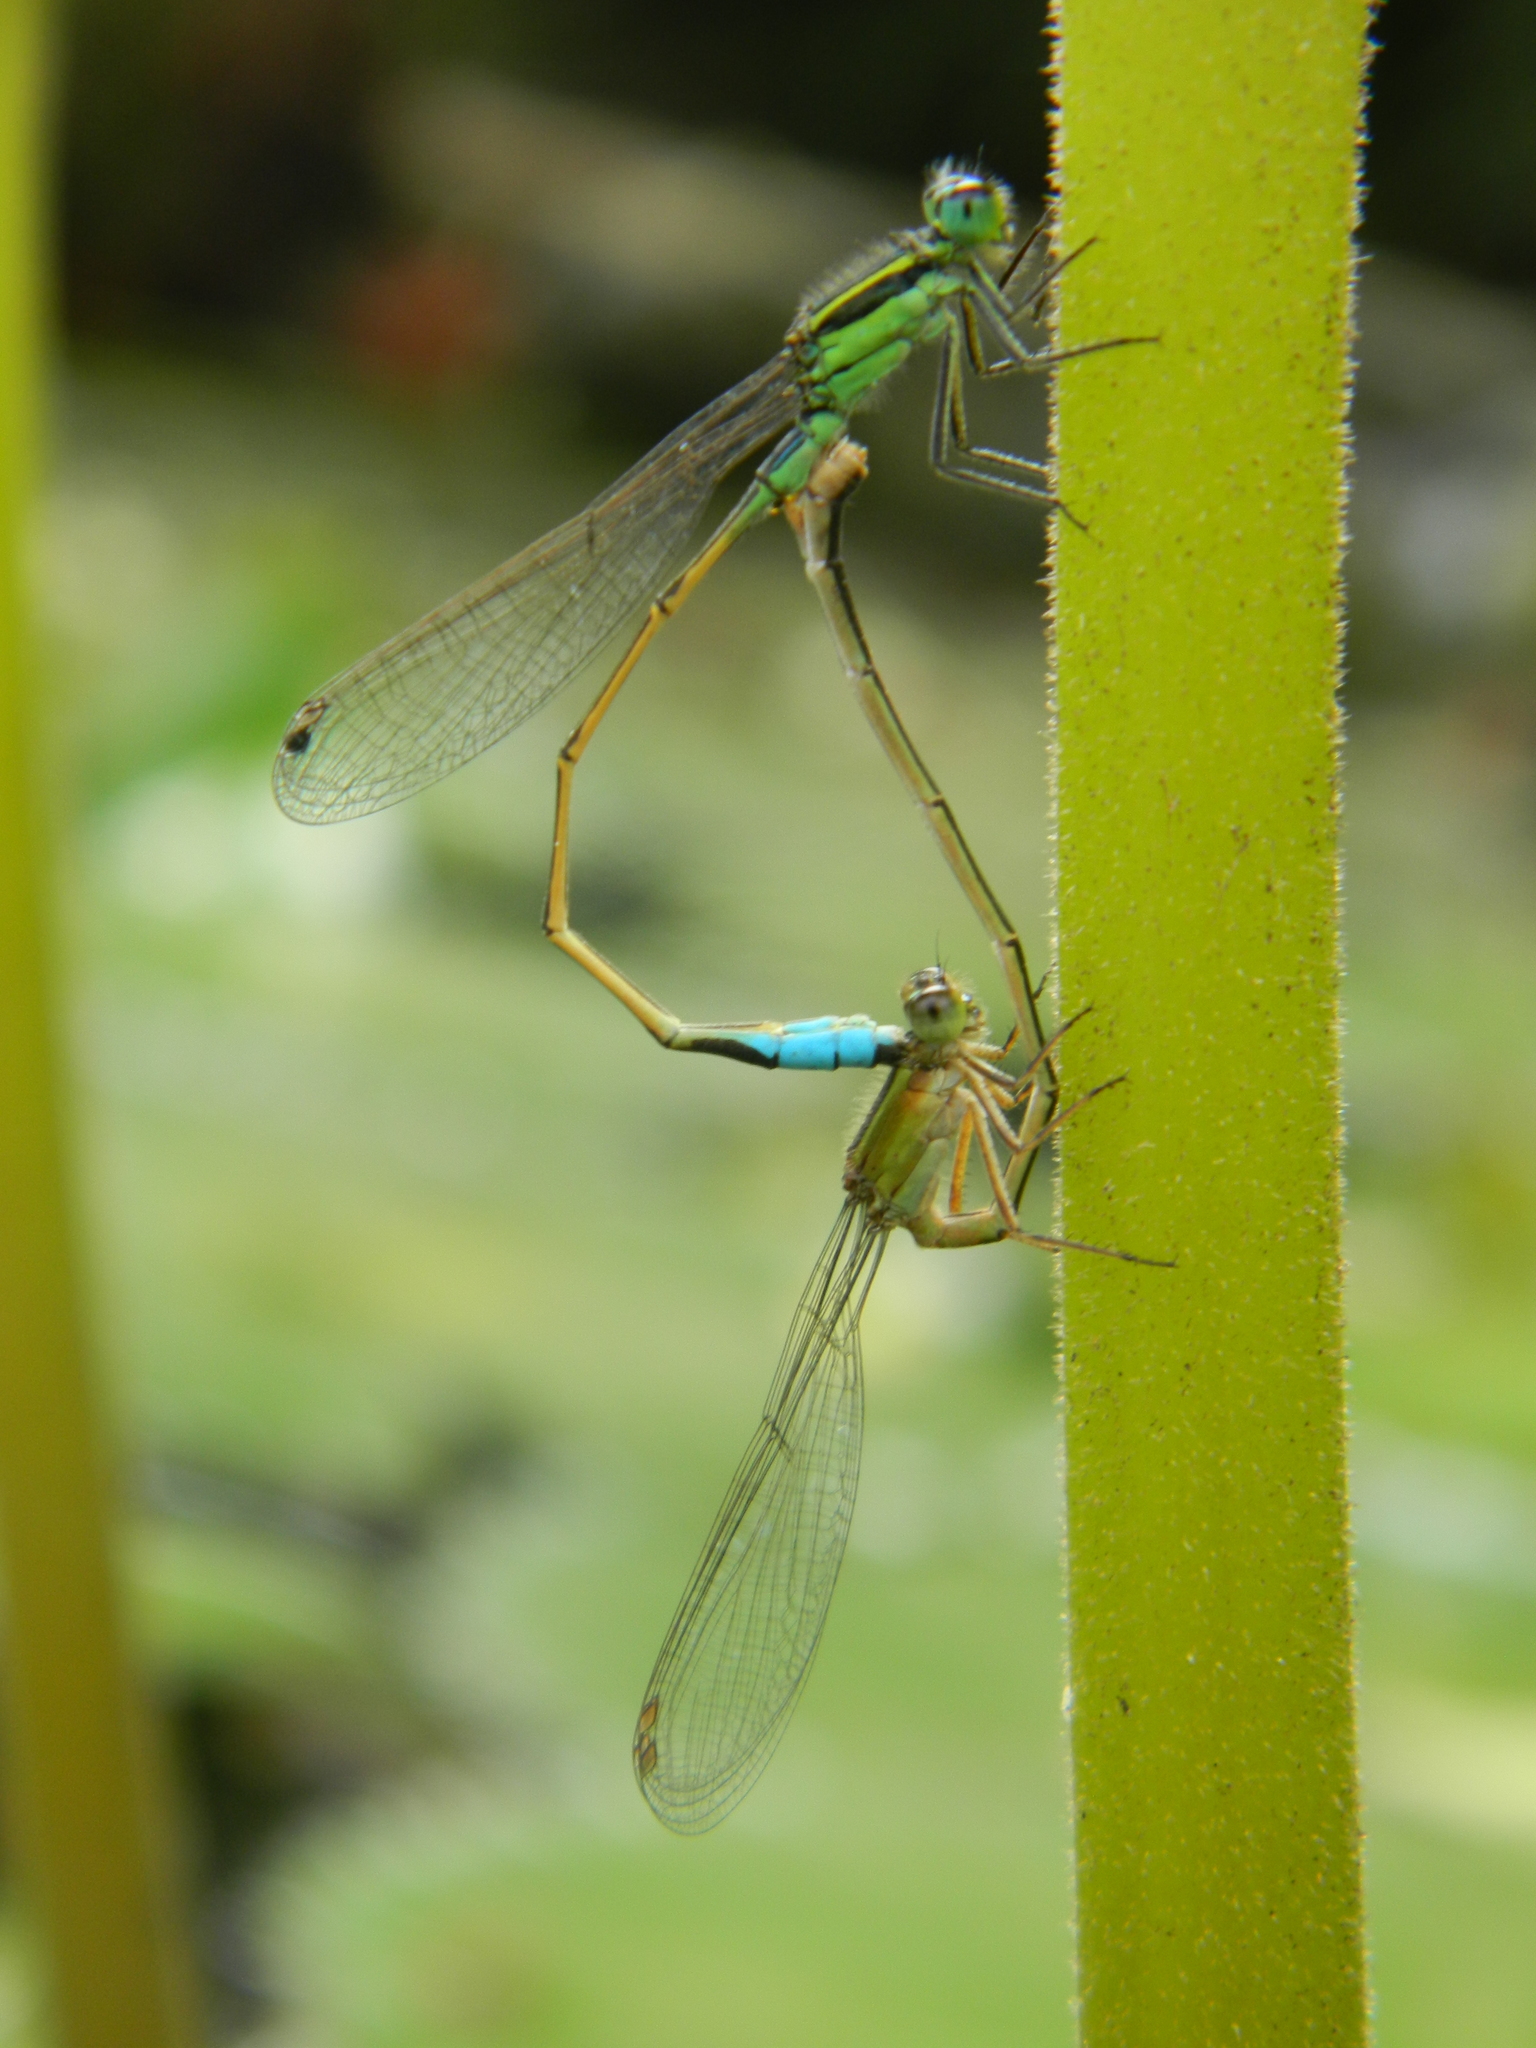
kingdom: Animalia
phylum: Arthropoda
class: Insecta
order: Odonata
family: Coenagrionidae
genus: Ischnura
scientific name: Ischnura ramburii
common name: Rambur's forktail
